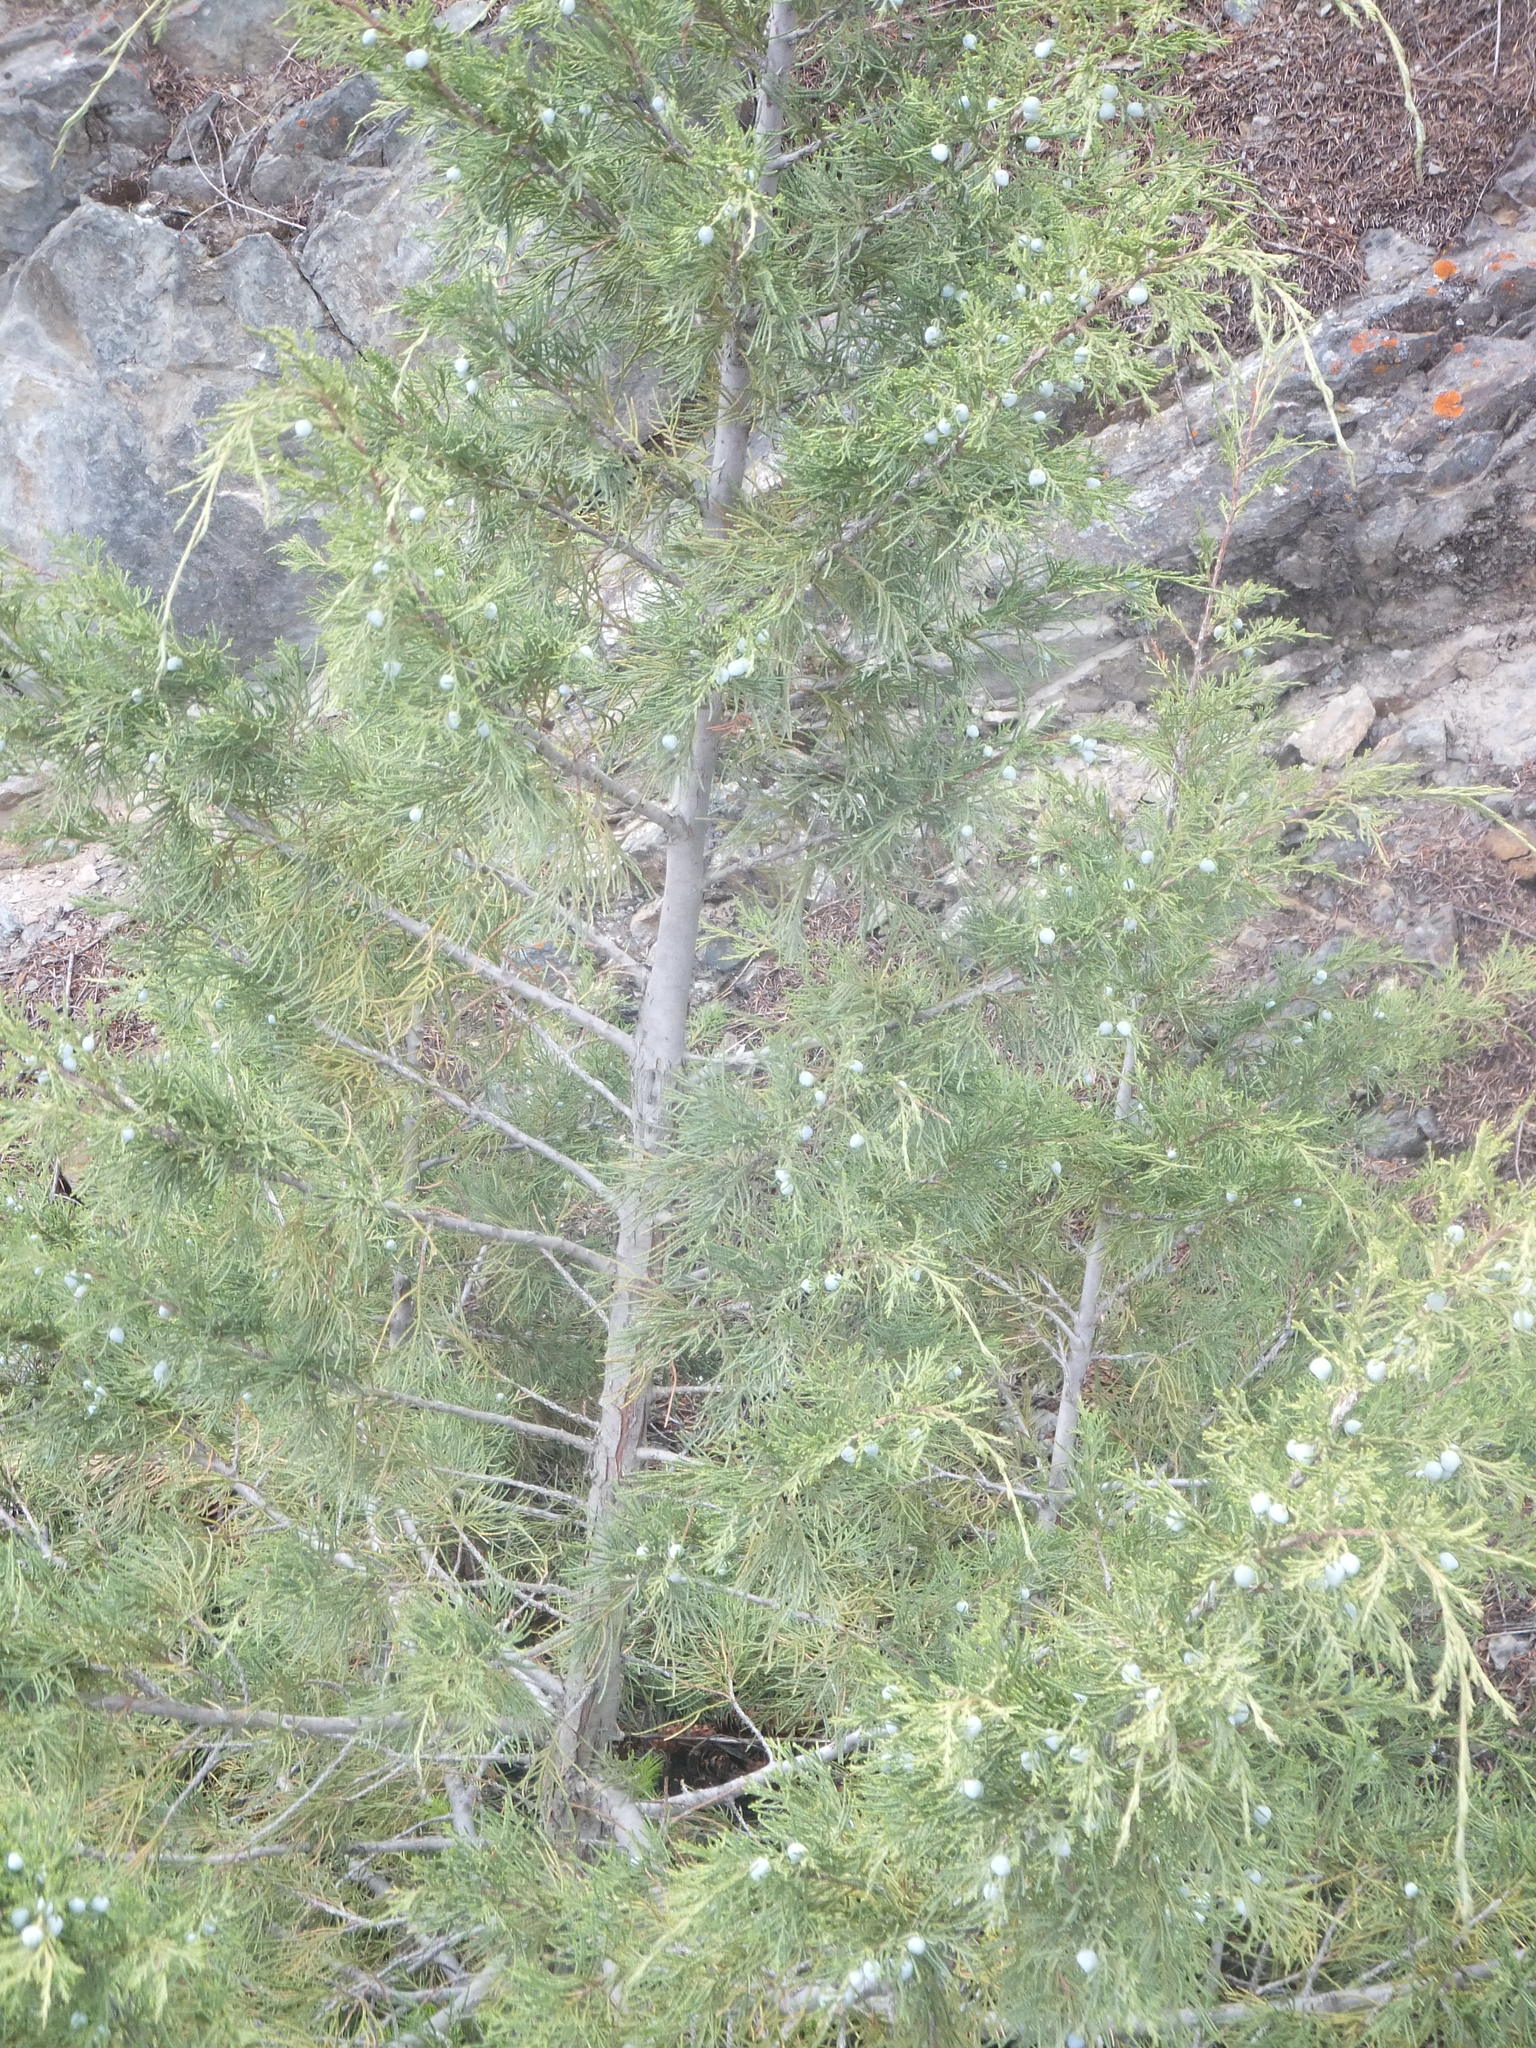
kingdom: Plantae
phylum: Tracheophyta
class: Pinopsida
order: Pinales
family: Cupressaceae
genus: Juniperus
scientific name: Juniperus scopulorum
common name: Rocky mountain juniper
